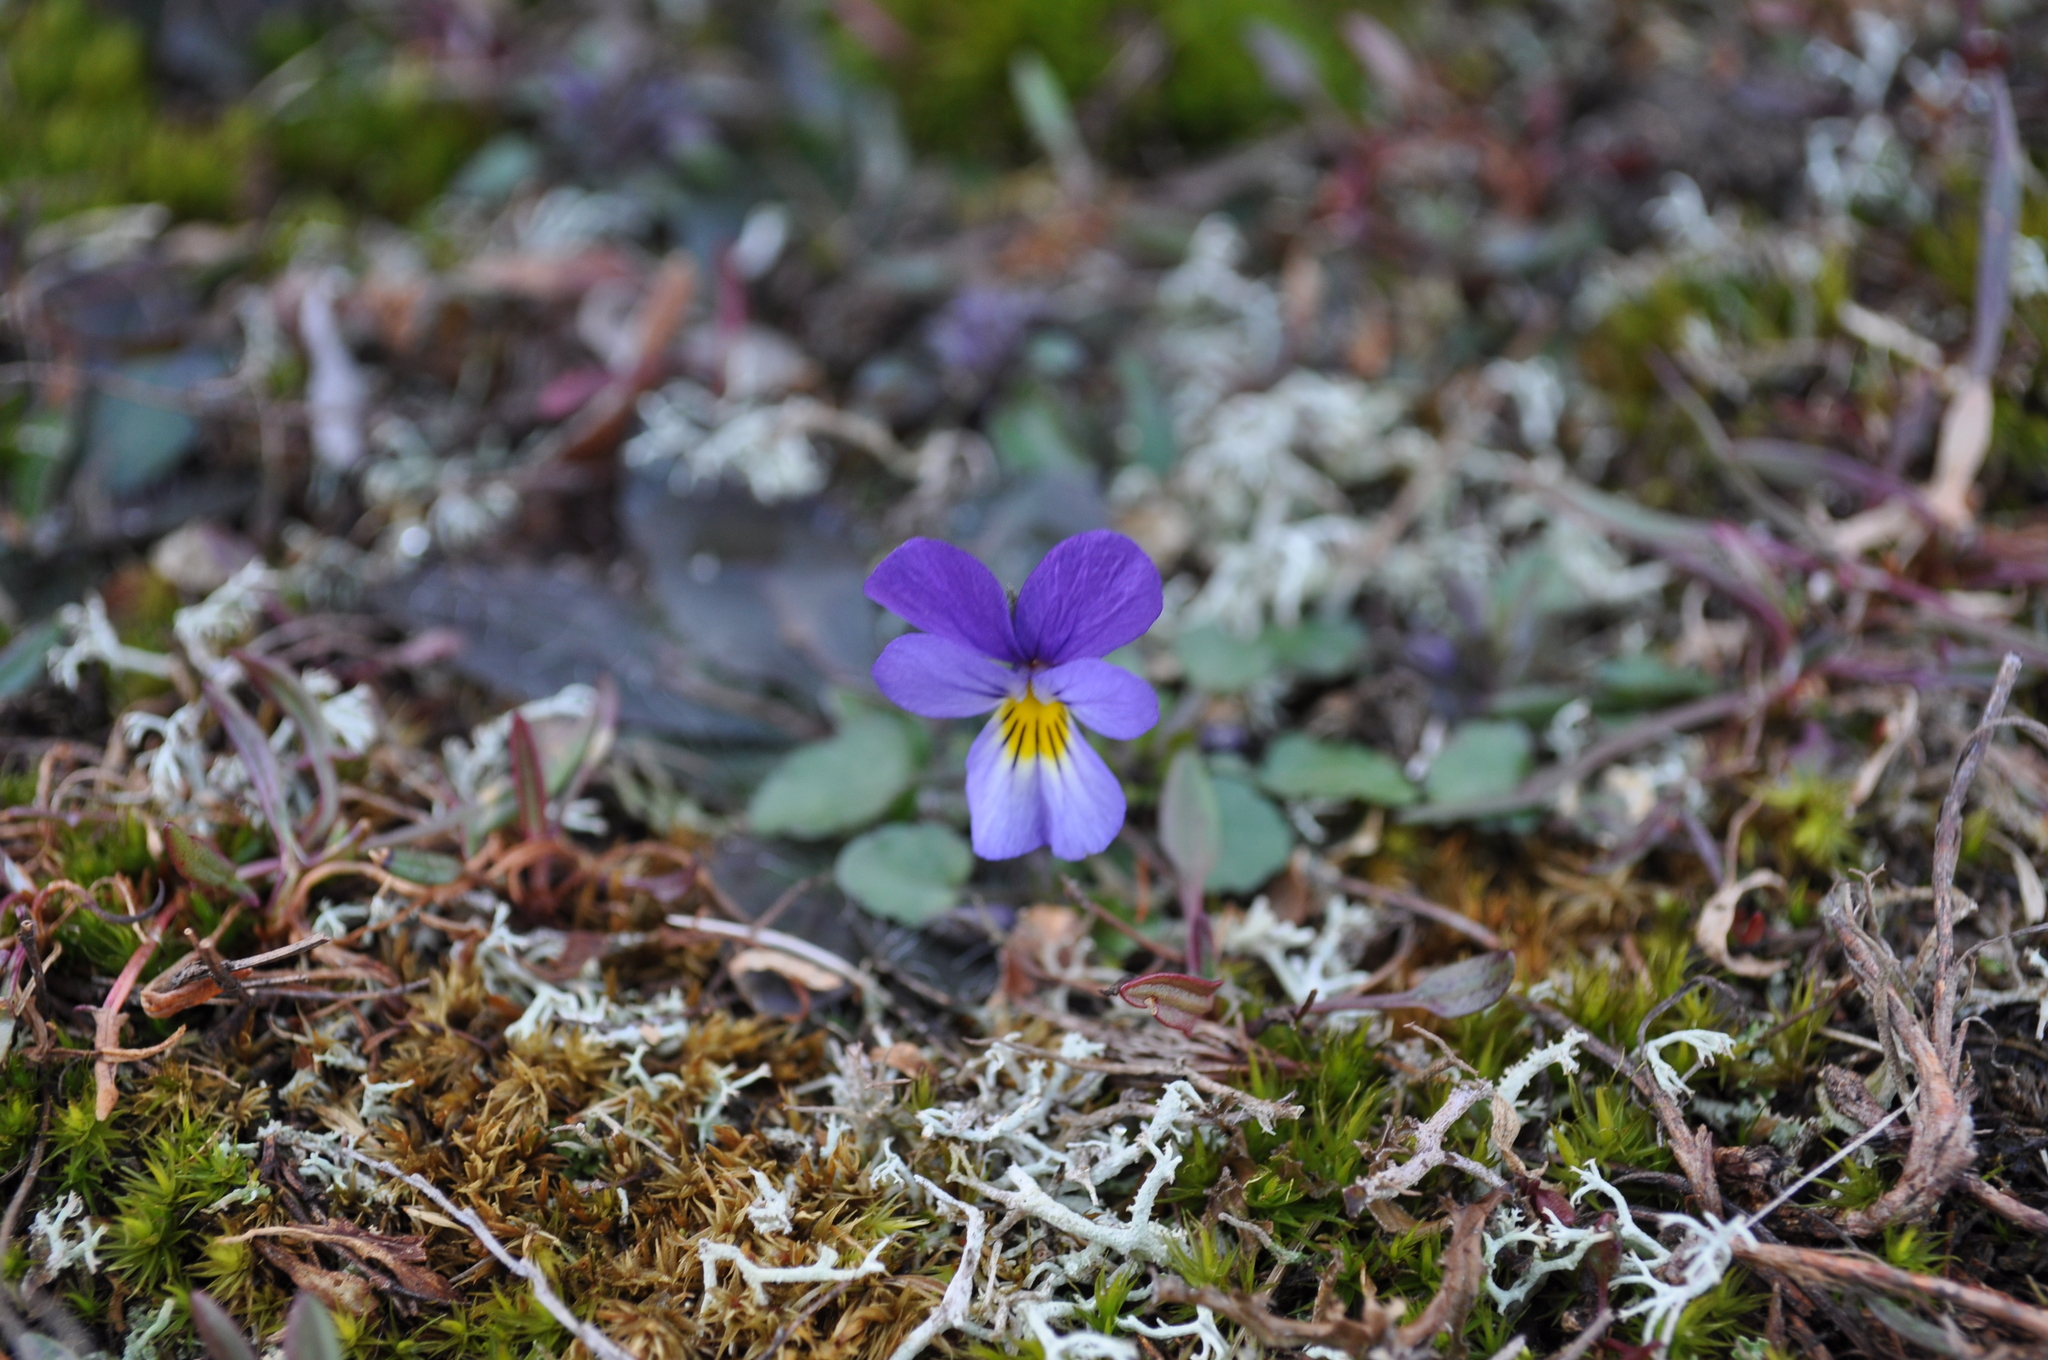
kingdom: Plantae
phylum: Tracheophyta
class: Magnoliopsida
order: Malpighiales
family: Violaceae
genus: Viola
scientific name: Viola tricolor
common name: Pansy
